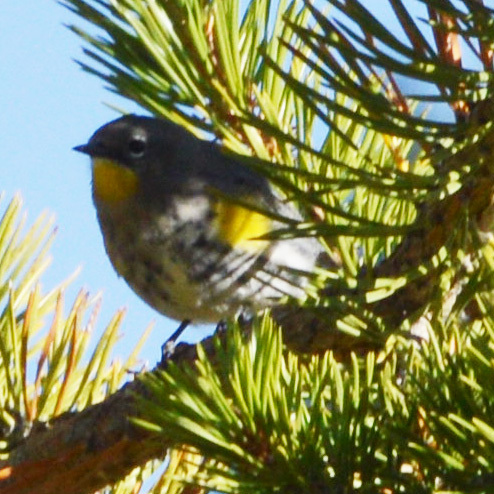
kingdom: Animalia
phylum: Chordata
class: Aves
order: Passeriformes
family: Parulidae
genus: Setophaga
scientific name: Setophaga coronata
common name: Myrtle warbler
